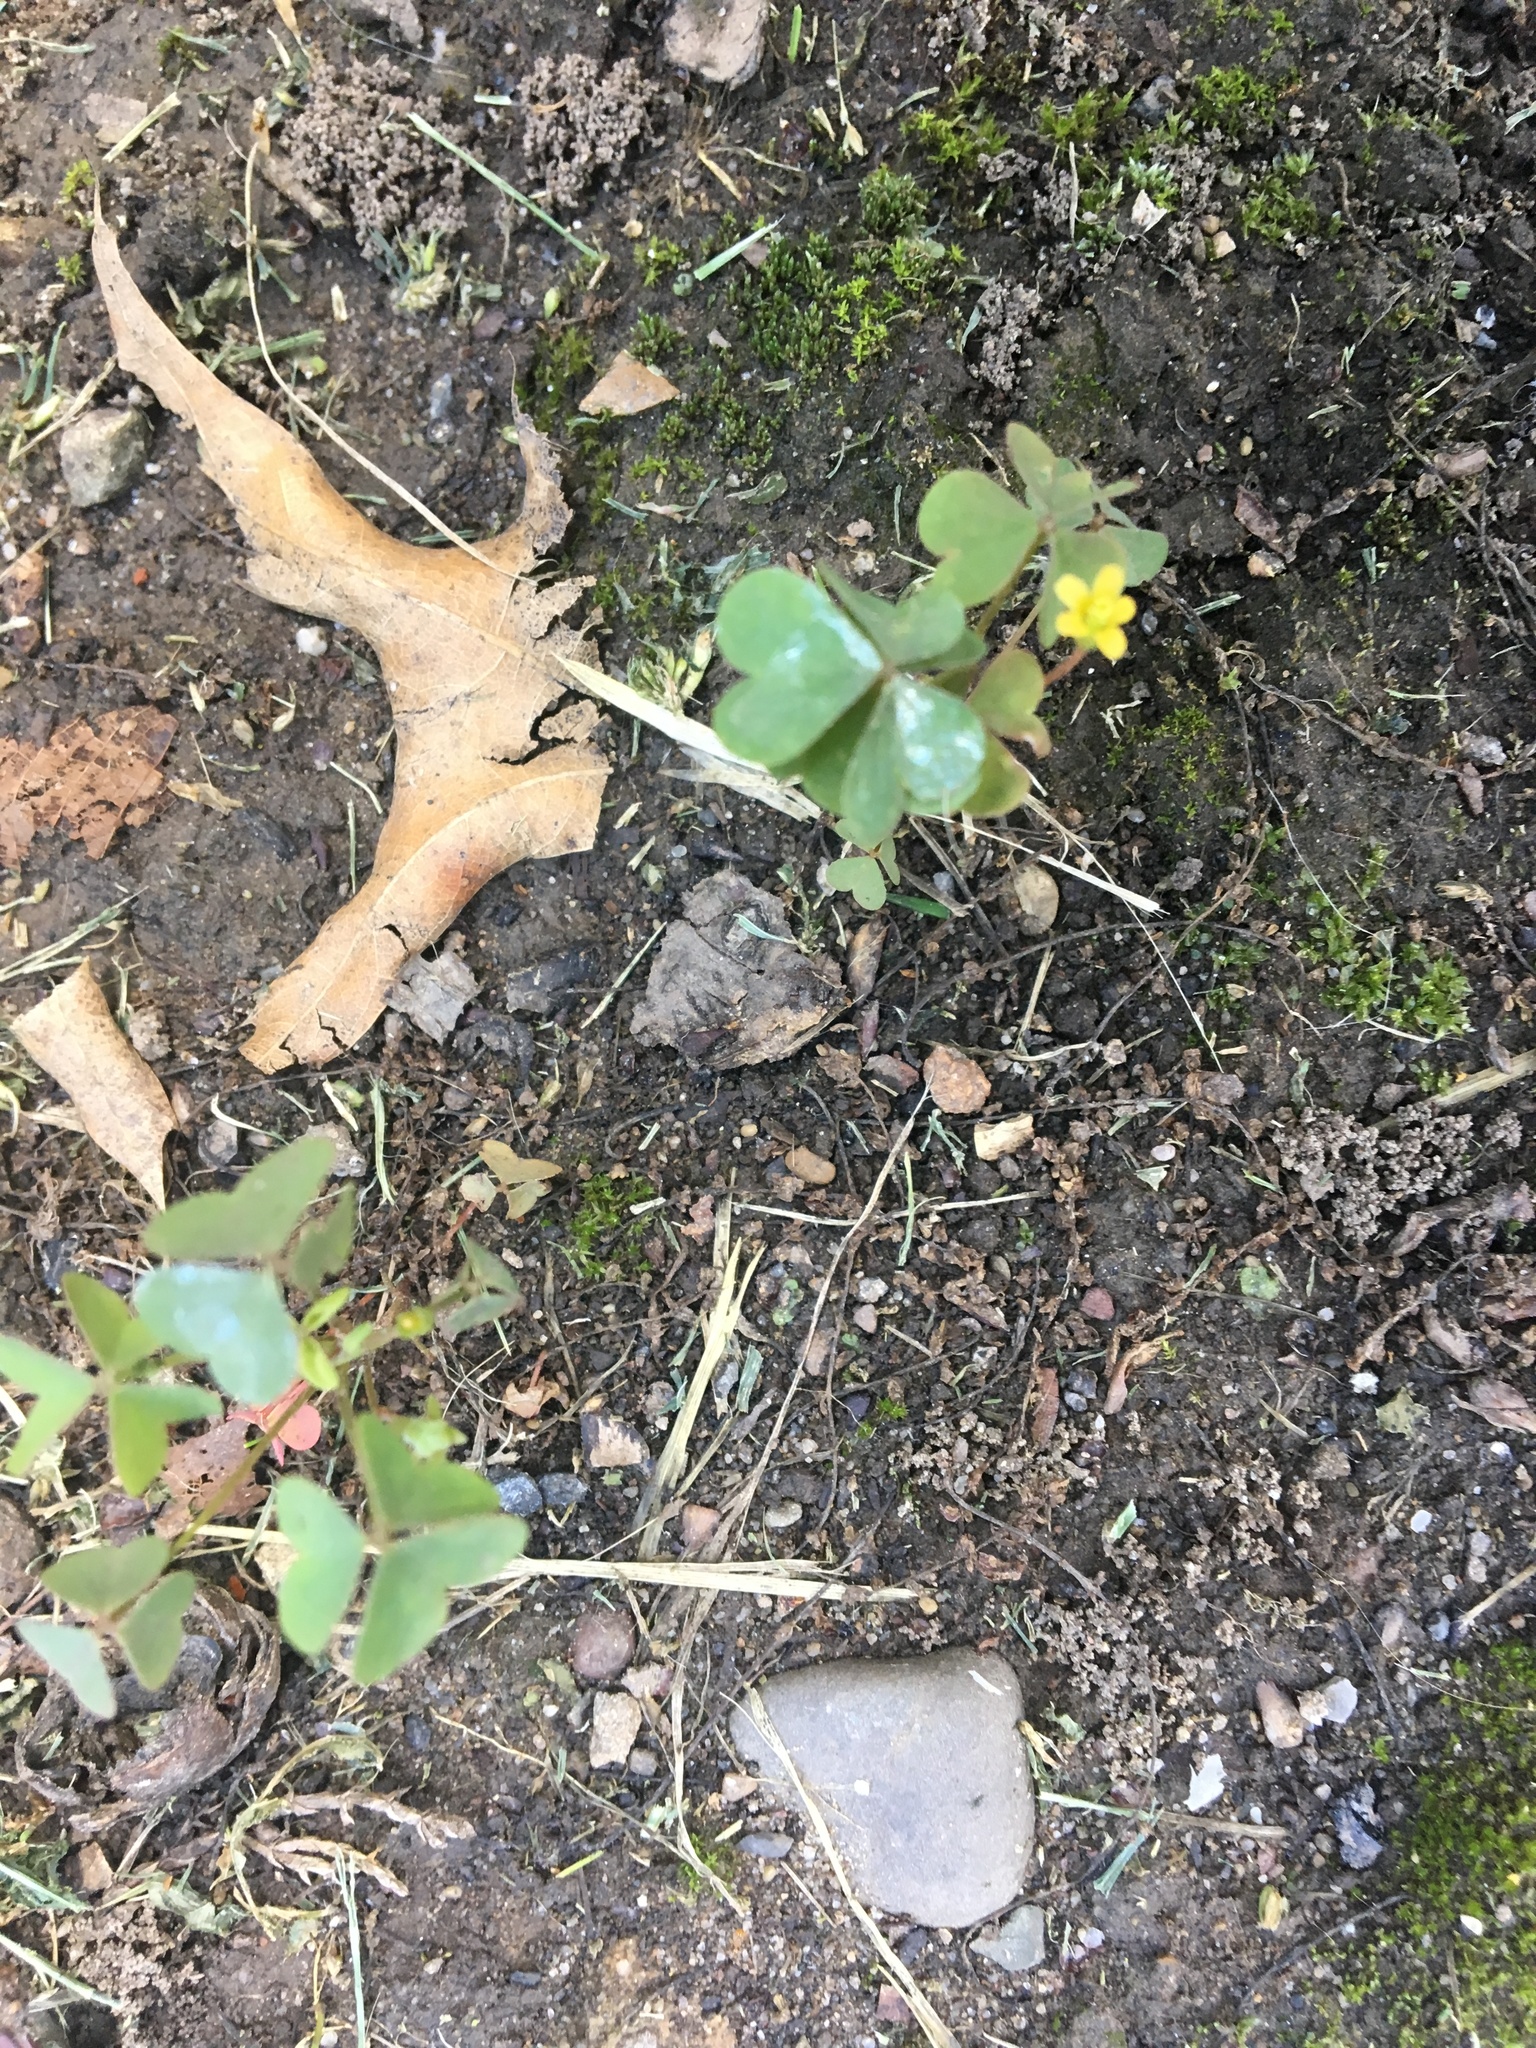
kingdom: Plantae
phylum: Tracheophyta
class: Magnoliopsida
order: Oxalidales
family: Oxalidaceae
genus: Oxalis
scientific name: Oxalis corniculata
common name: Procumbent yellow-sorrel
